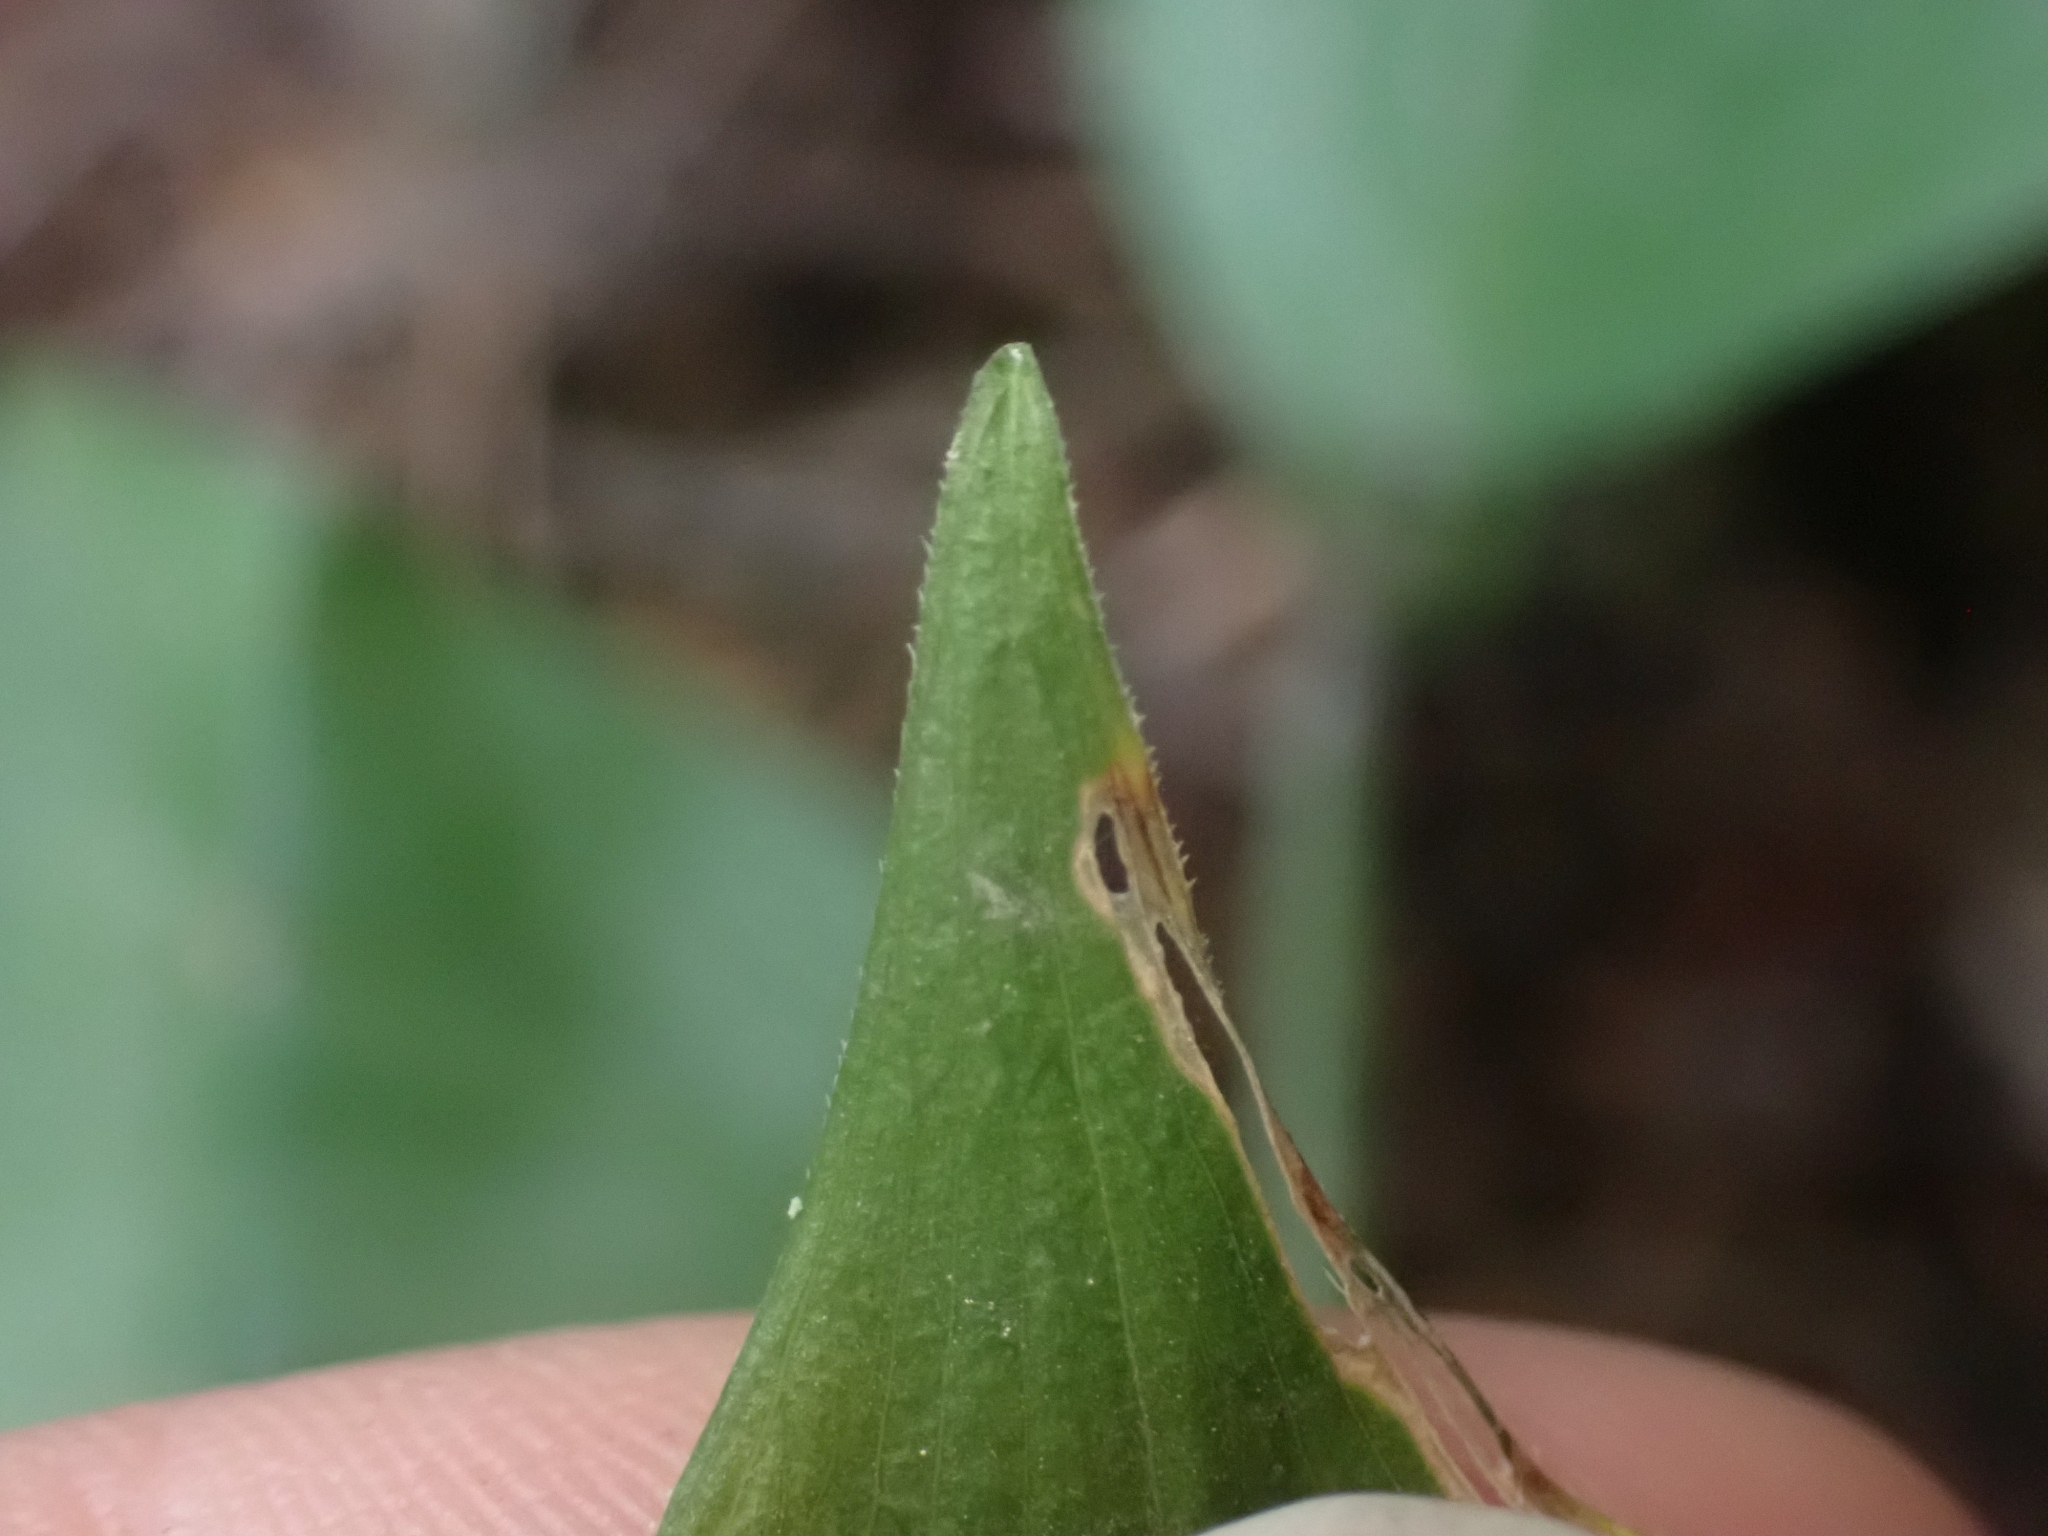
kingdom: Plantae
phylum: Tracheophyta
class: Liliopsida
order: Asparagales
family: Asparagaceae
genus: Maianthemum
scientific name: Maianthemum racemosum
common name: False spikenard
